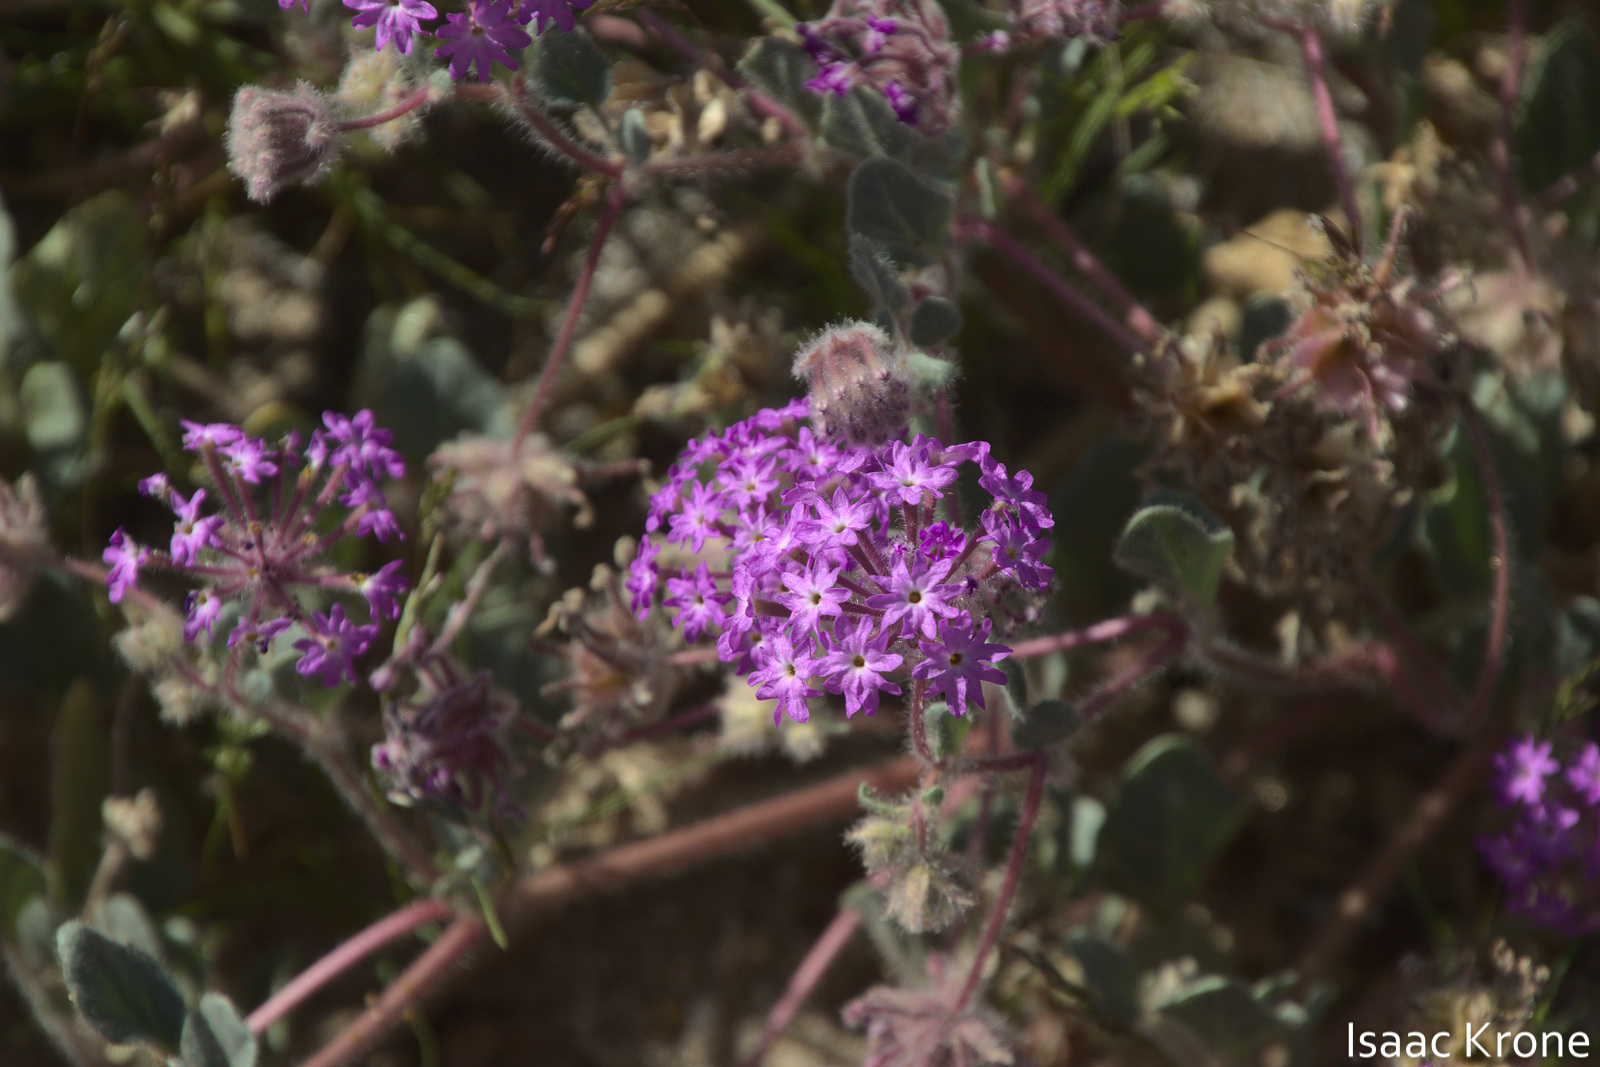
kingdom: Plantae
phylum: Tracheophyta
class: Magnoliopsida
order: Caryophyllales
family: Nyctaginaceae
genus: Abronia
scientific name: Abronia villosa
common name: Desert sand-verbena
